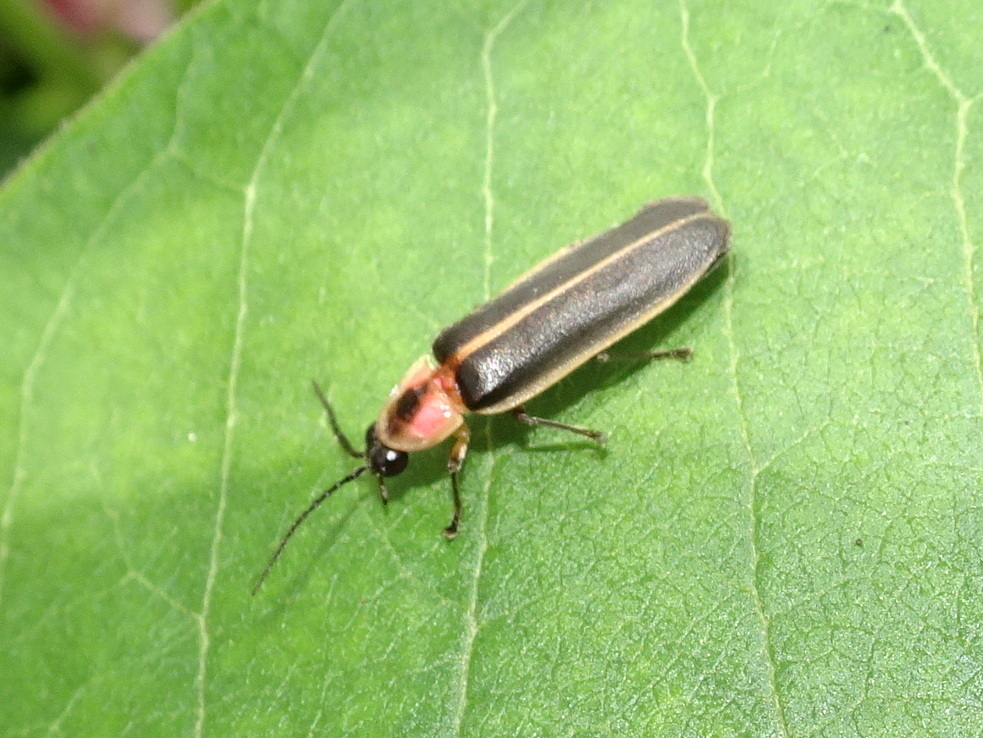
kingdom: Animalia
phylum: Arthropoda
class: Insecta
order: Coleoptera
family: Lampyridae
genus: Photinus
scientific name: Photinus pyralis
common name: Big dipper firefly
